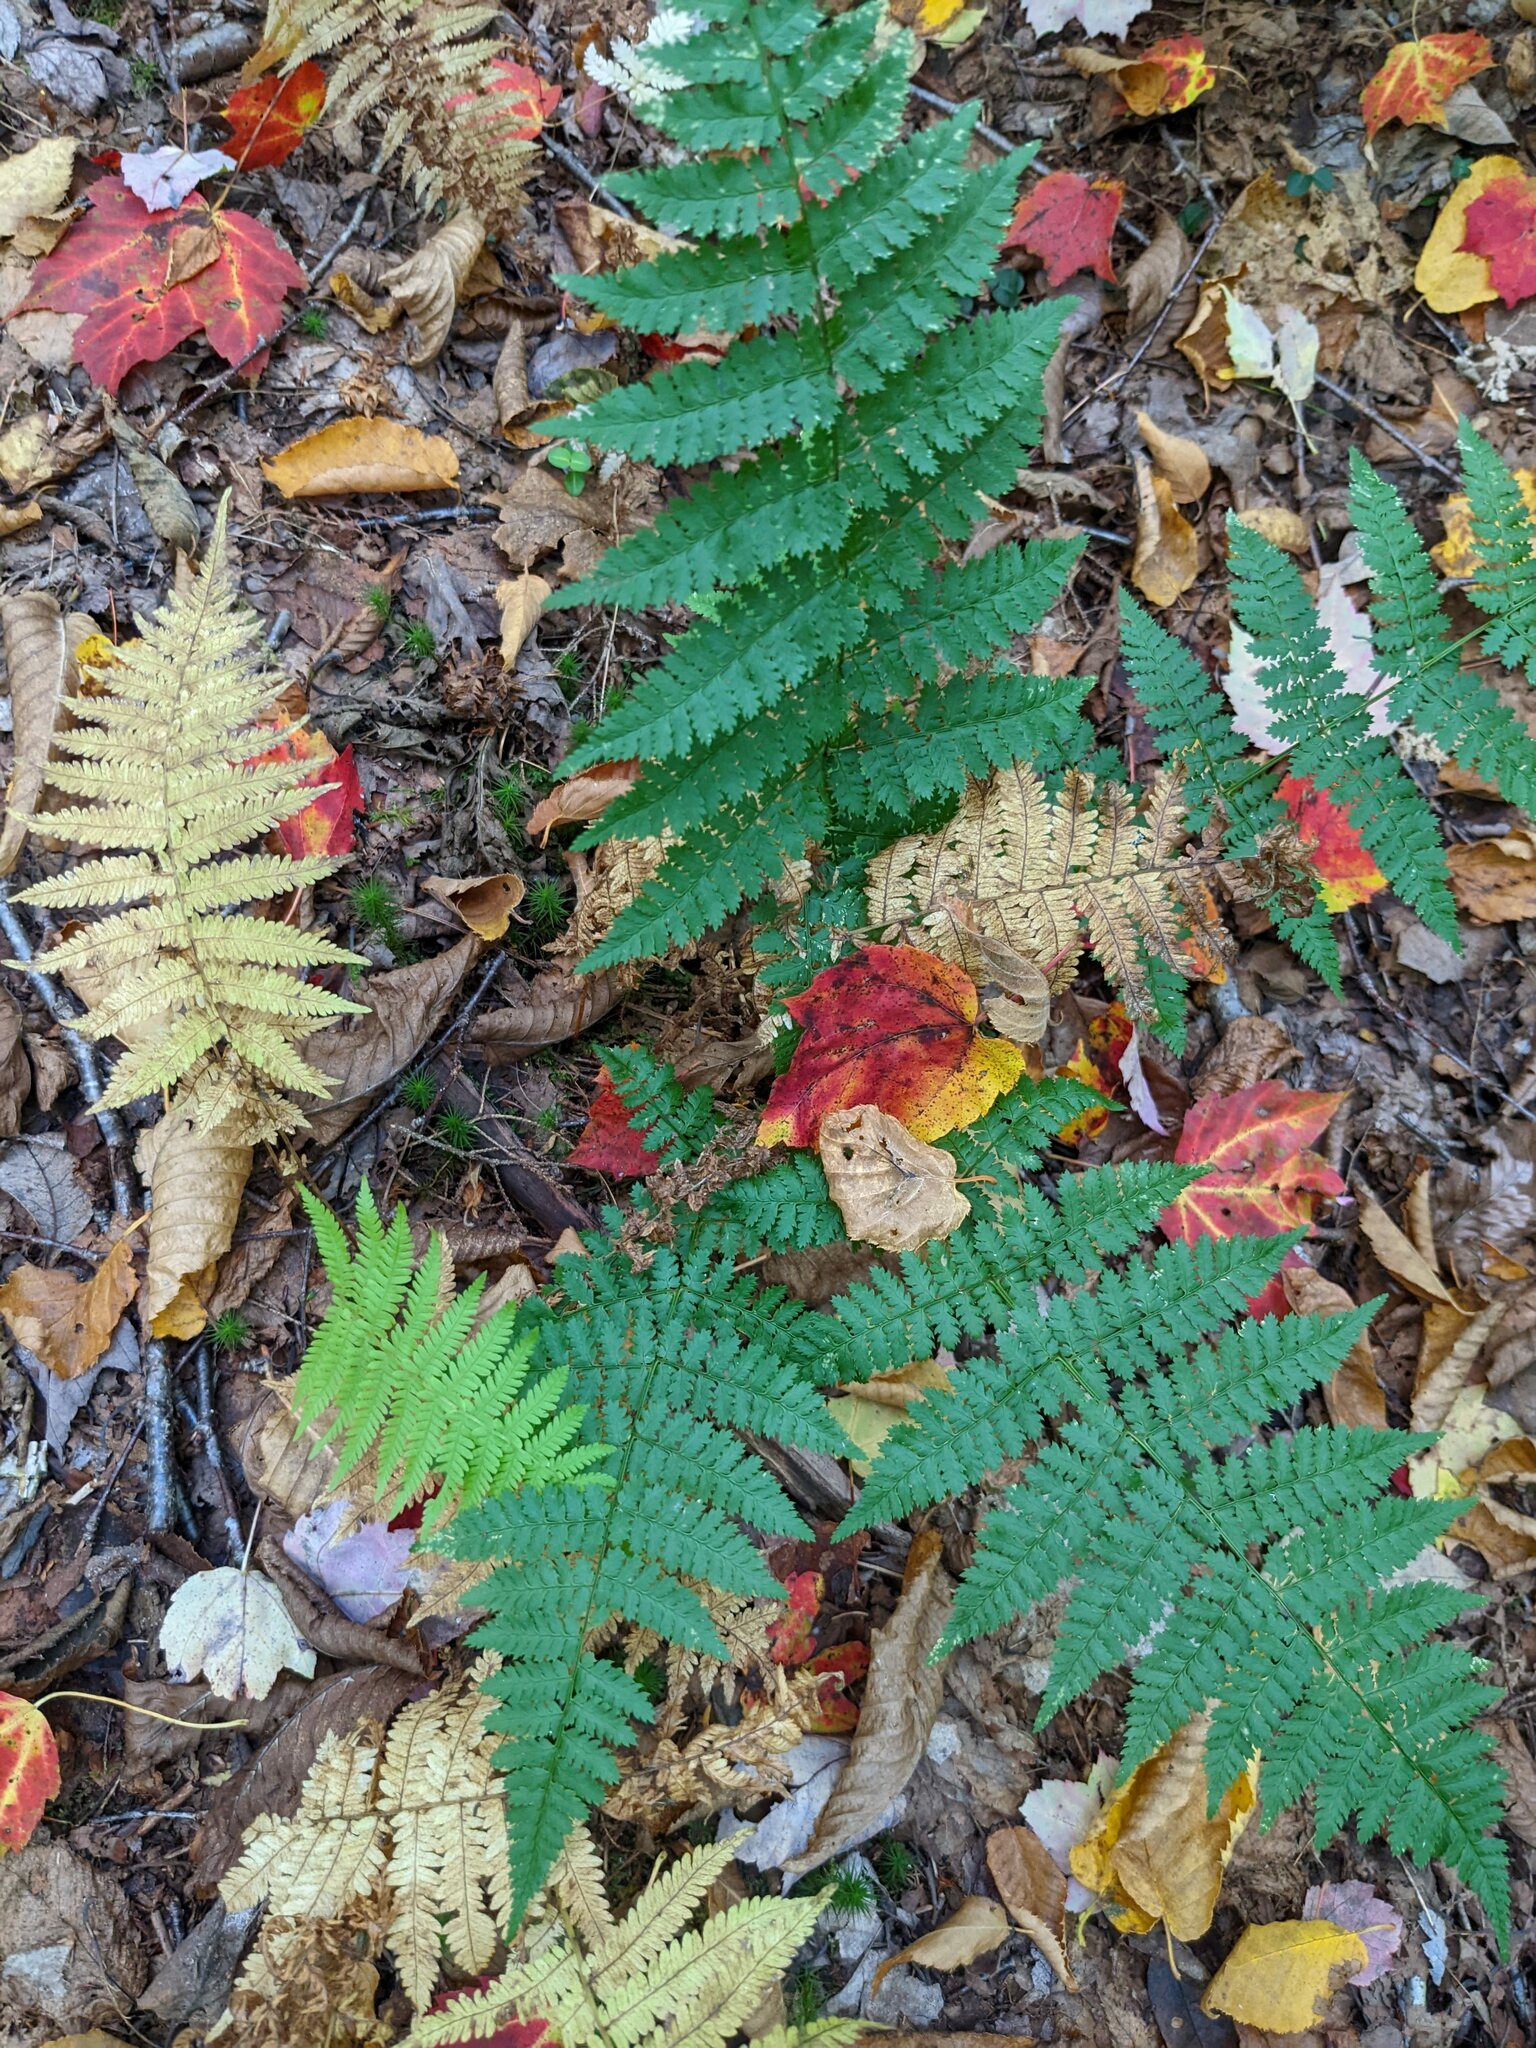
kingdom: Plantae
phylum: Tracheophyta
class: Polypodiopsida
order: Polypodiales
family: Dryopteridaceae
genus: Dryopteris
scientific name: Dryopteris intermedia
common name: Evergreen wood fern
